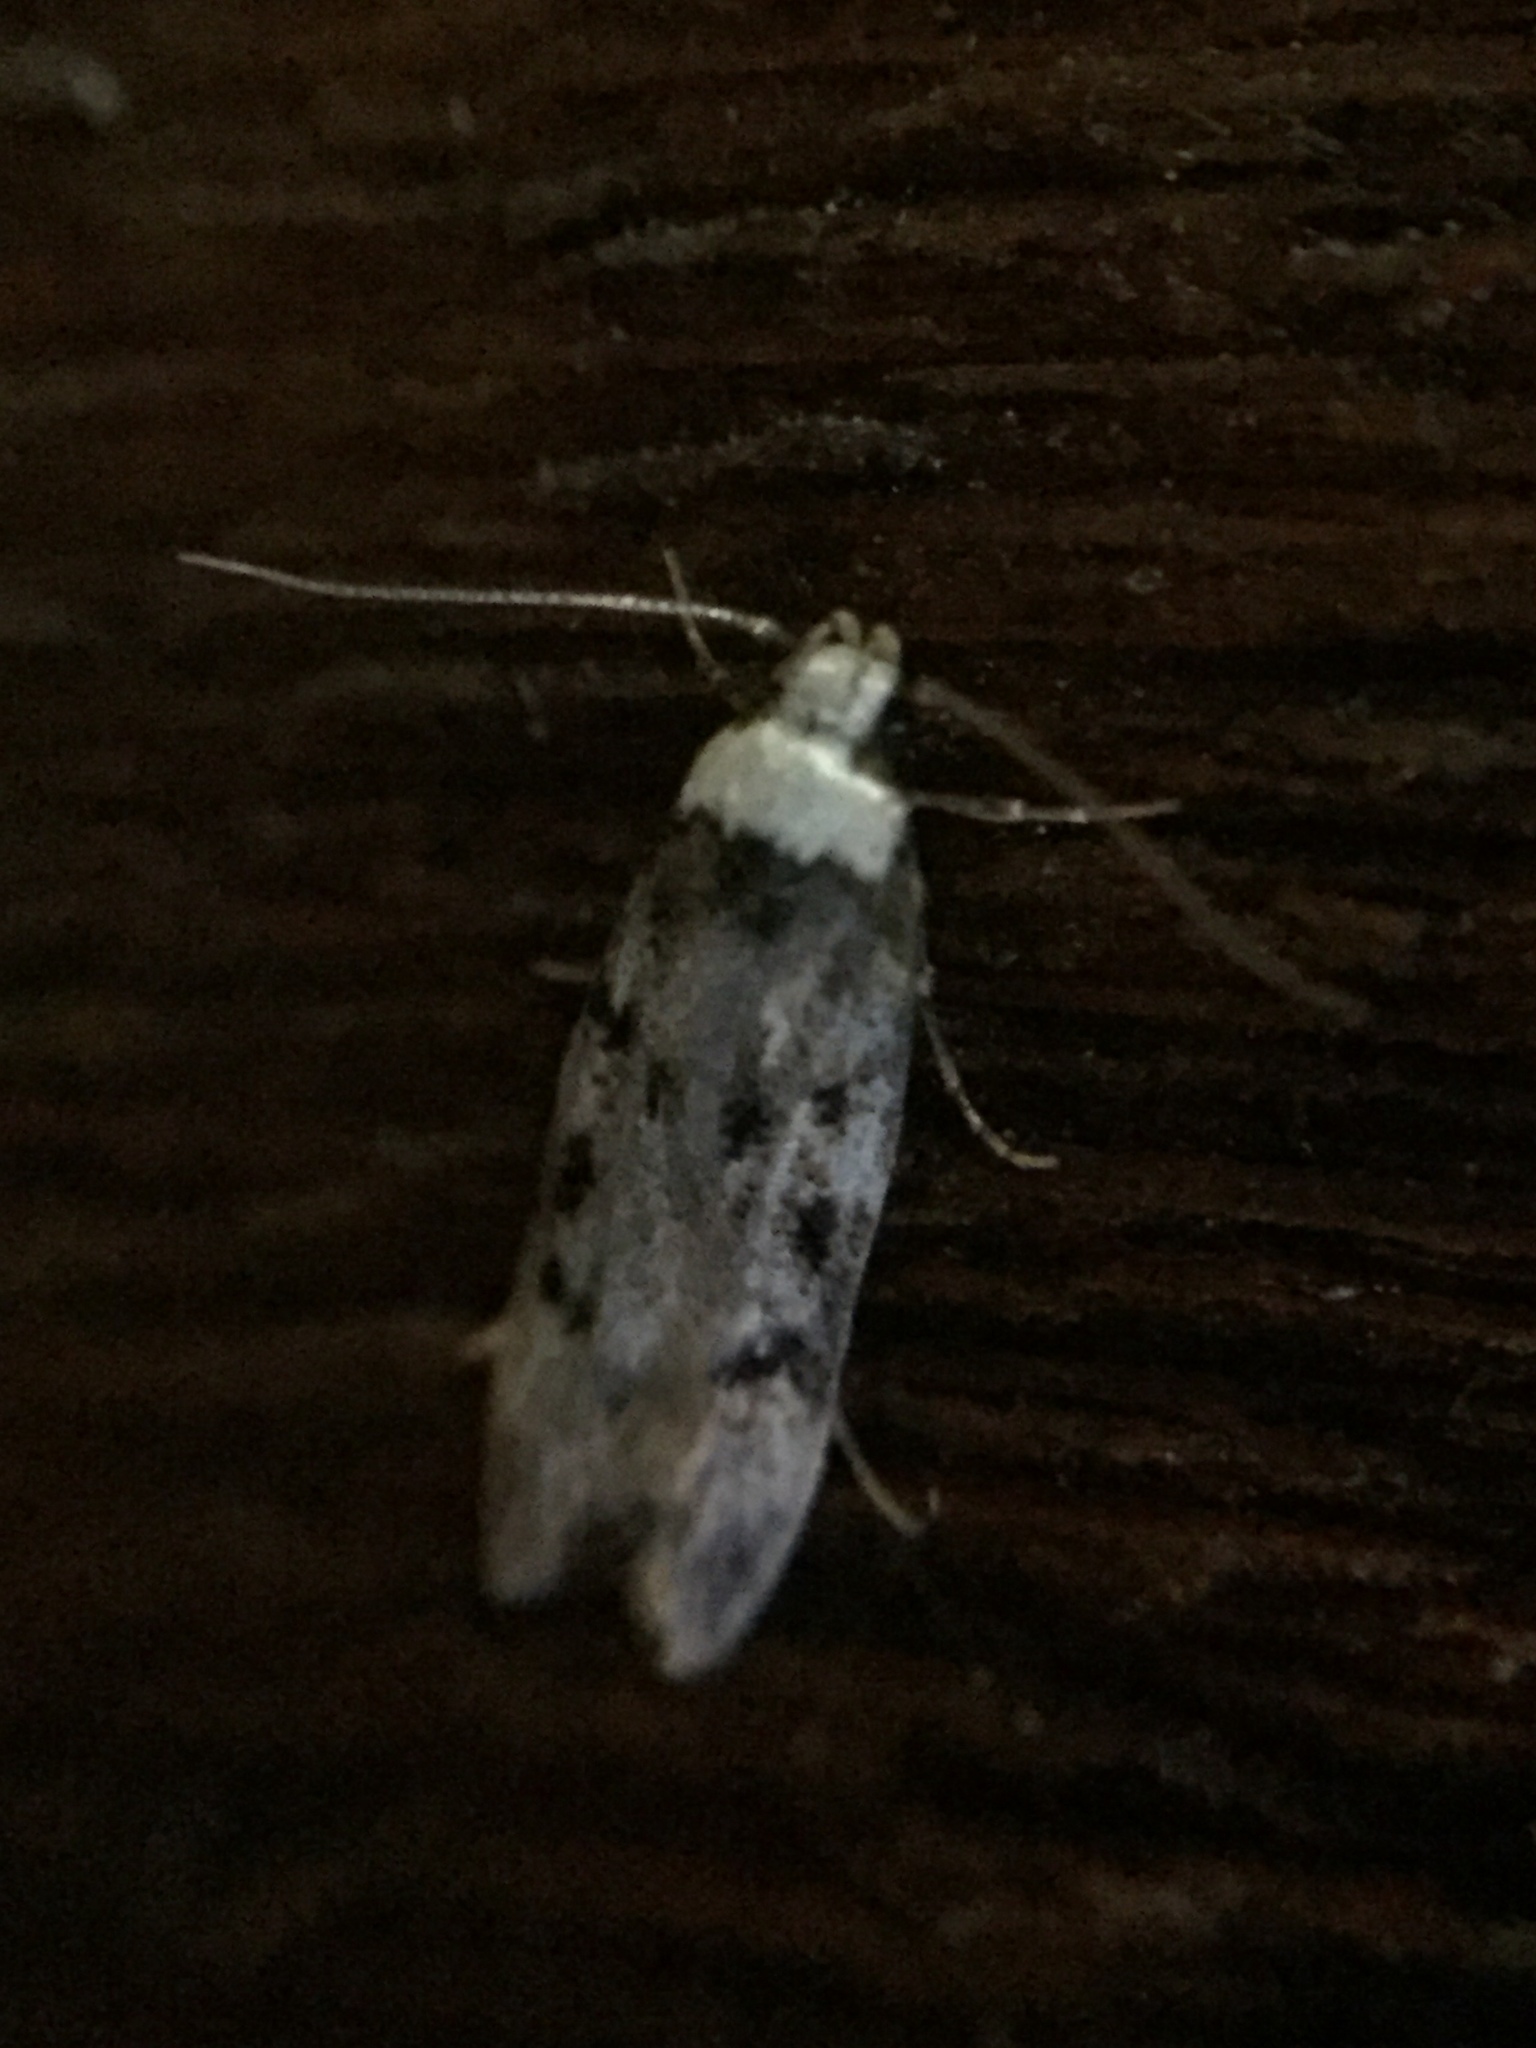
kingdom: Animalia
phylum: Arthropoda
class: Insecta
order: Lepidoptera
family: Oecophoridae
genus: Endrosis
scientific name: Endrosis sarcitrella
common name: White-shouldered house moth
